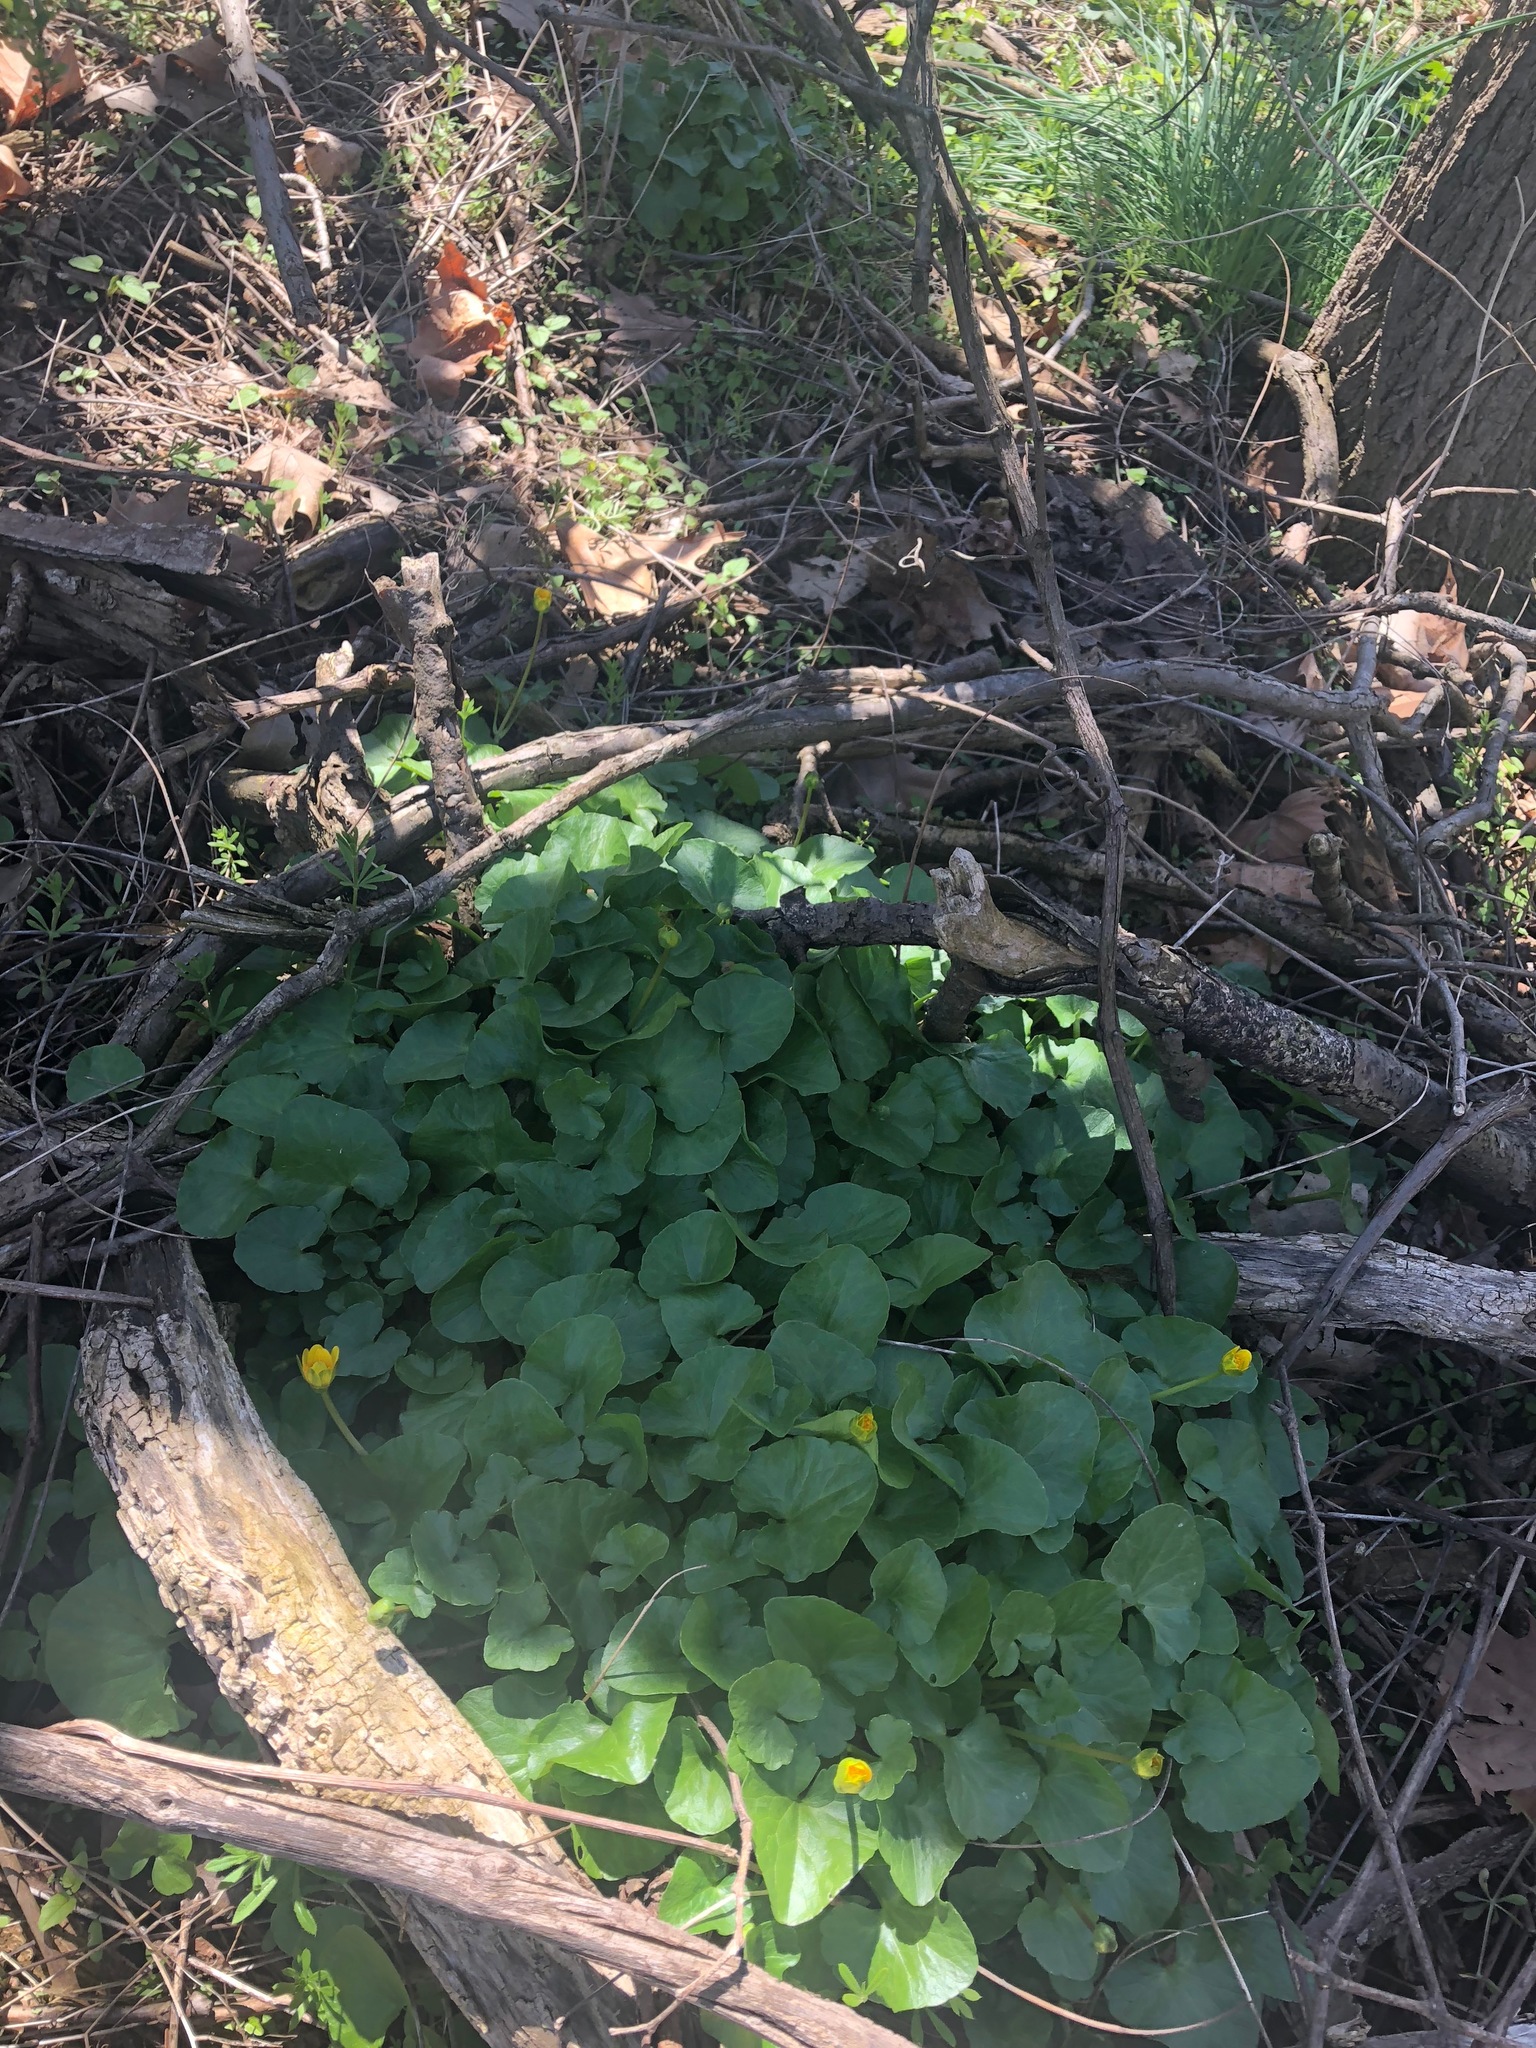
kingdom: Plantae
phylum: Tracheophyta
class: Magnoliopsida
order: Ranunculales
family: Ranunculaceae
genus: Ficaria
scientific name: Ficaria verna
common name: Lesser celandine
